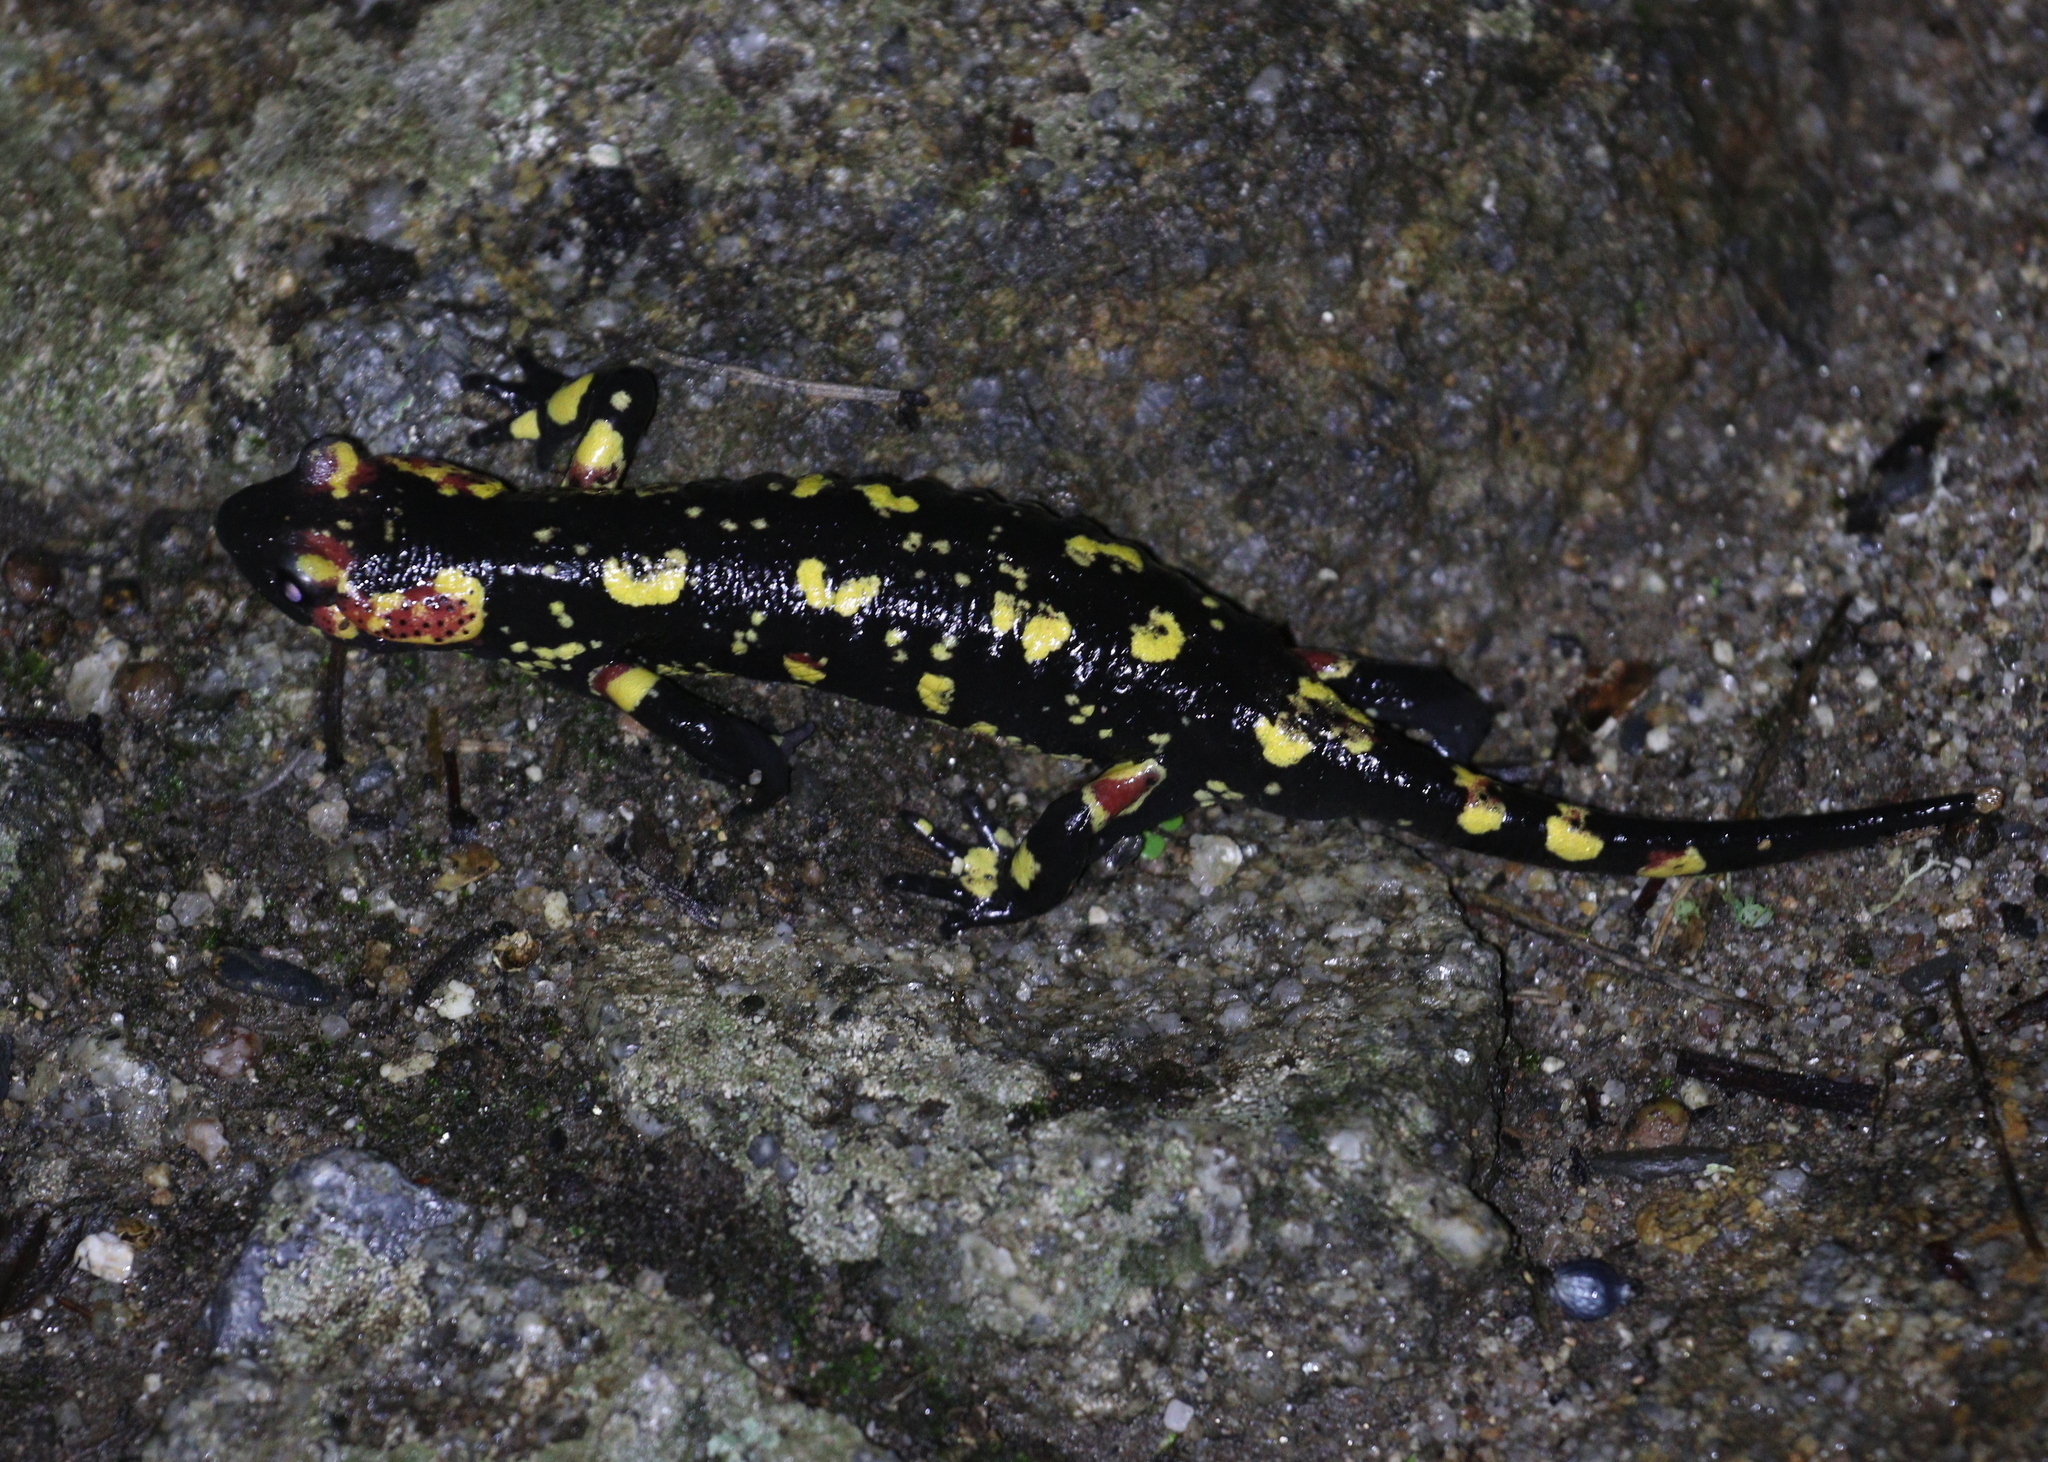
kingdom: Animalia
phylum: Chordata
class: Amphibia
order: Caudata
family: Salamandridae
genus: Salamandra
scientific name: Salamandra salamandra
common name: Fire salamander
